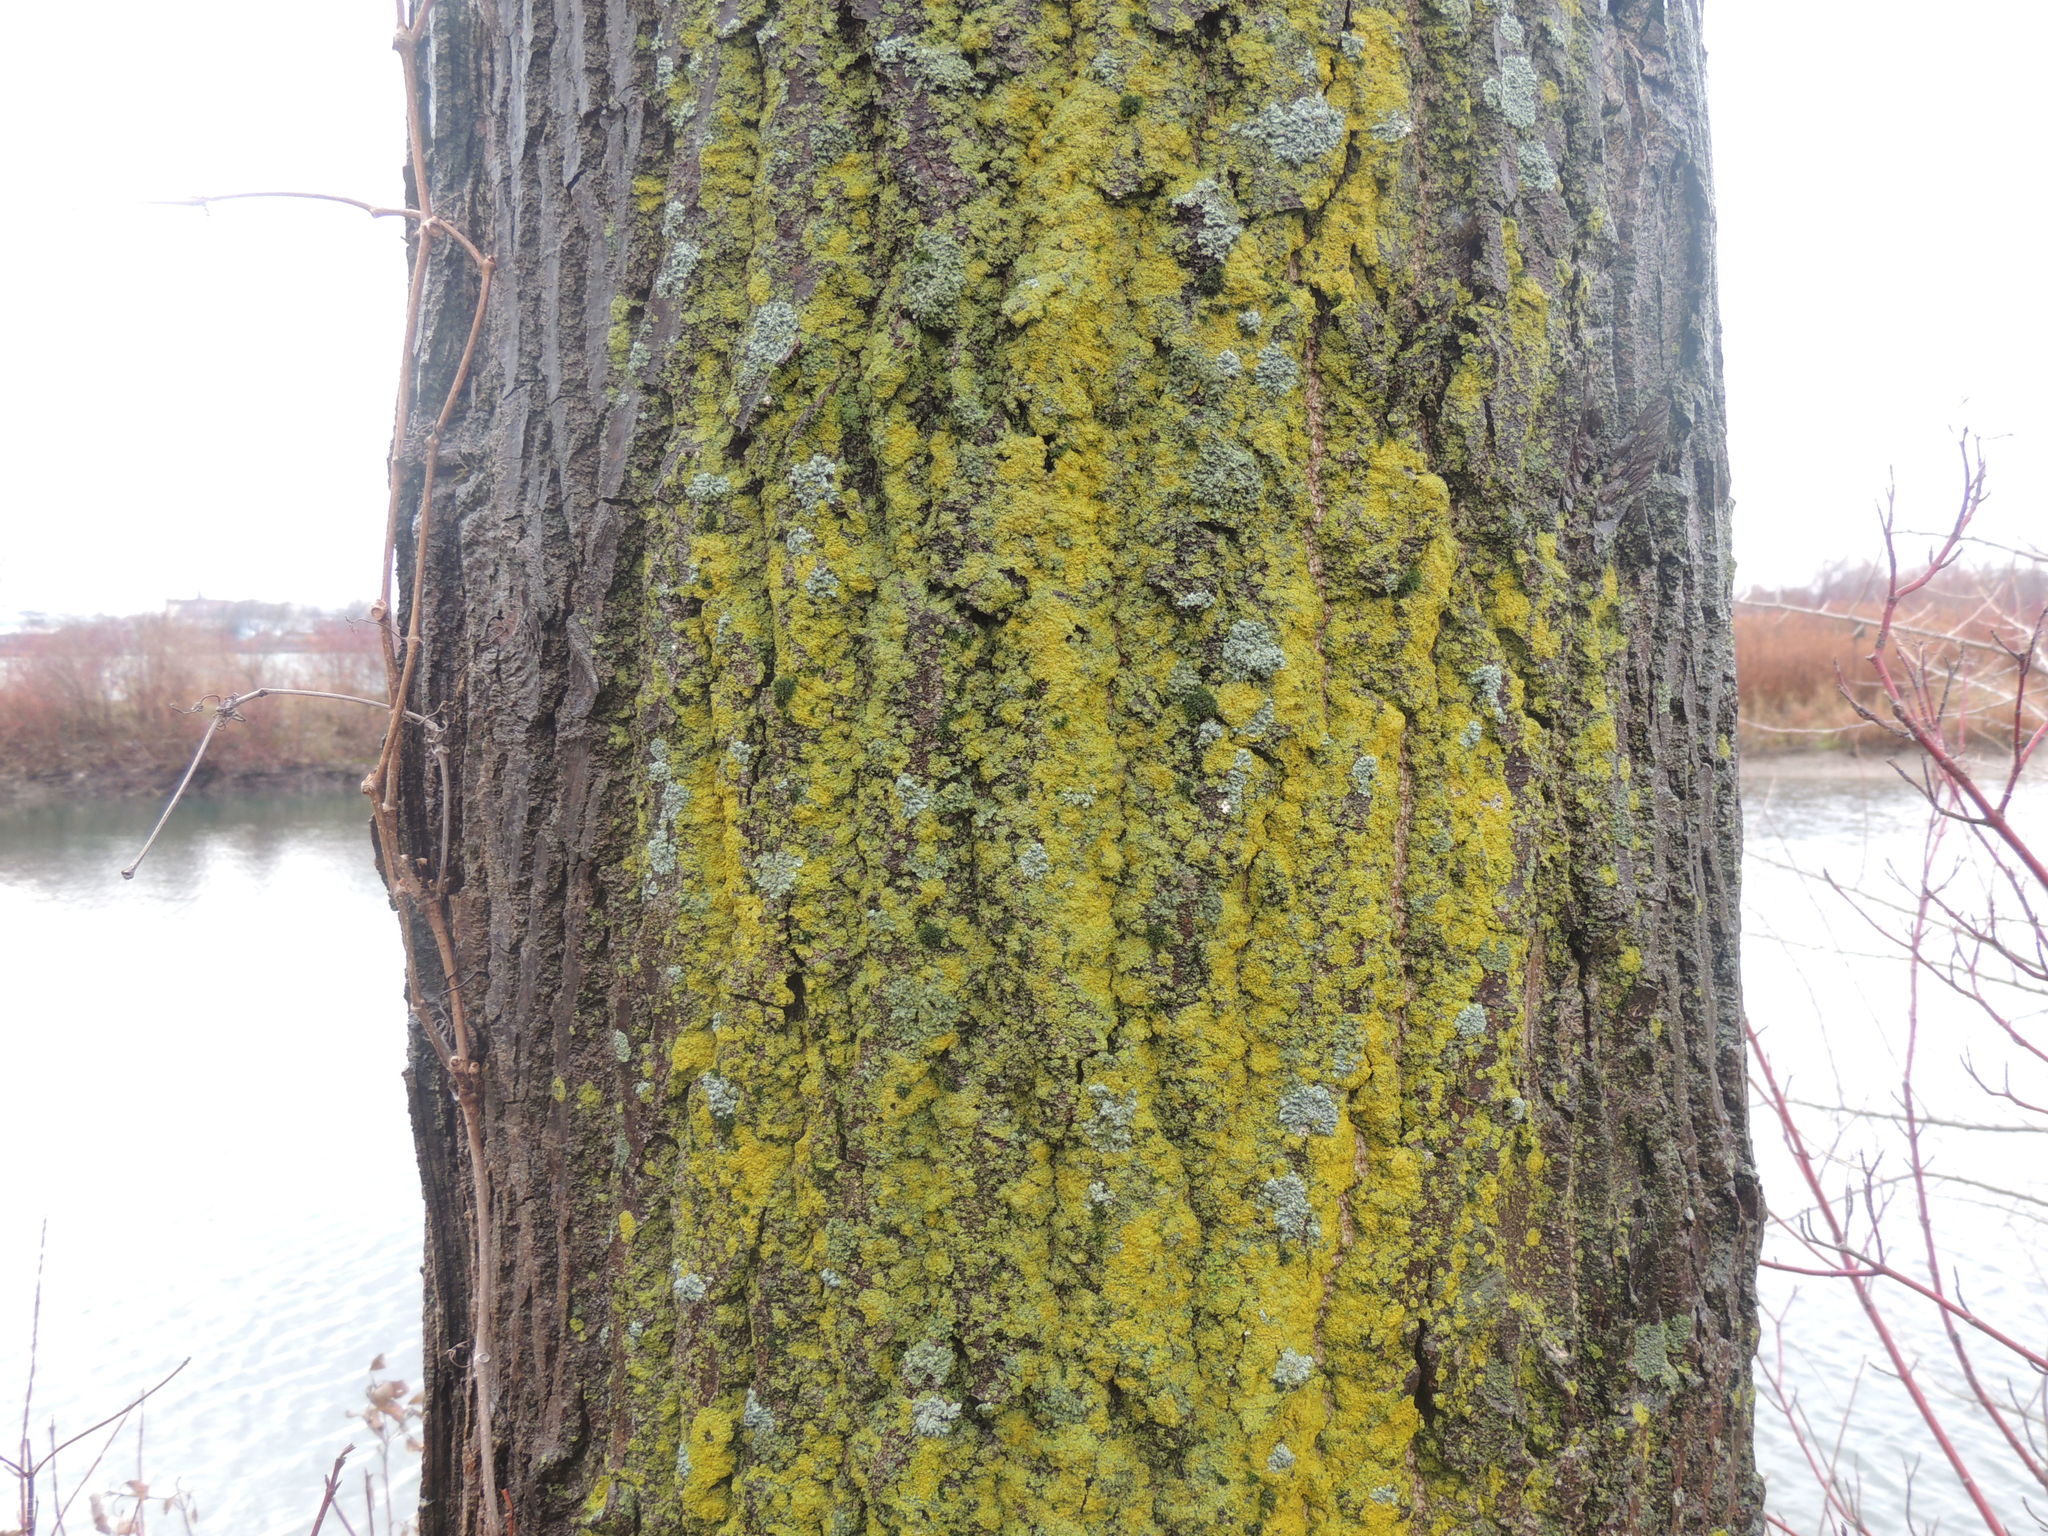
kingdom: Fungi
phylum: Ascomycota
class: Candelariomycetes
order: Candelariales
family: Candelariaceae
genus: Candelaria
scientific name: Candelaria concolor
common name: Candleflame lichen
